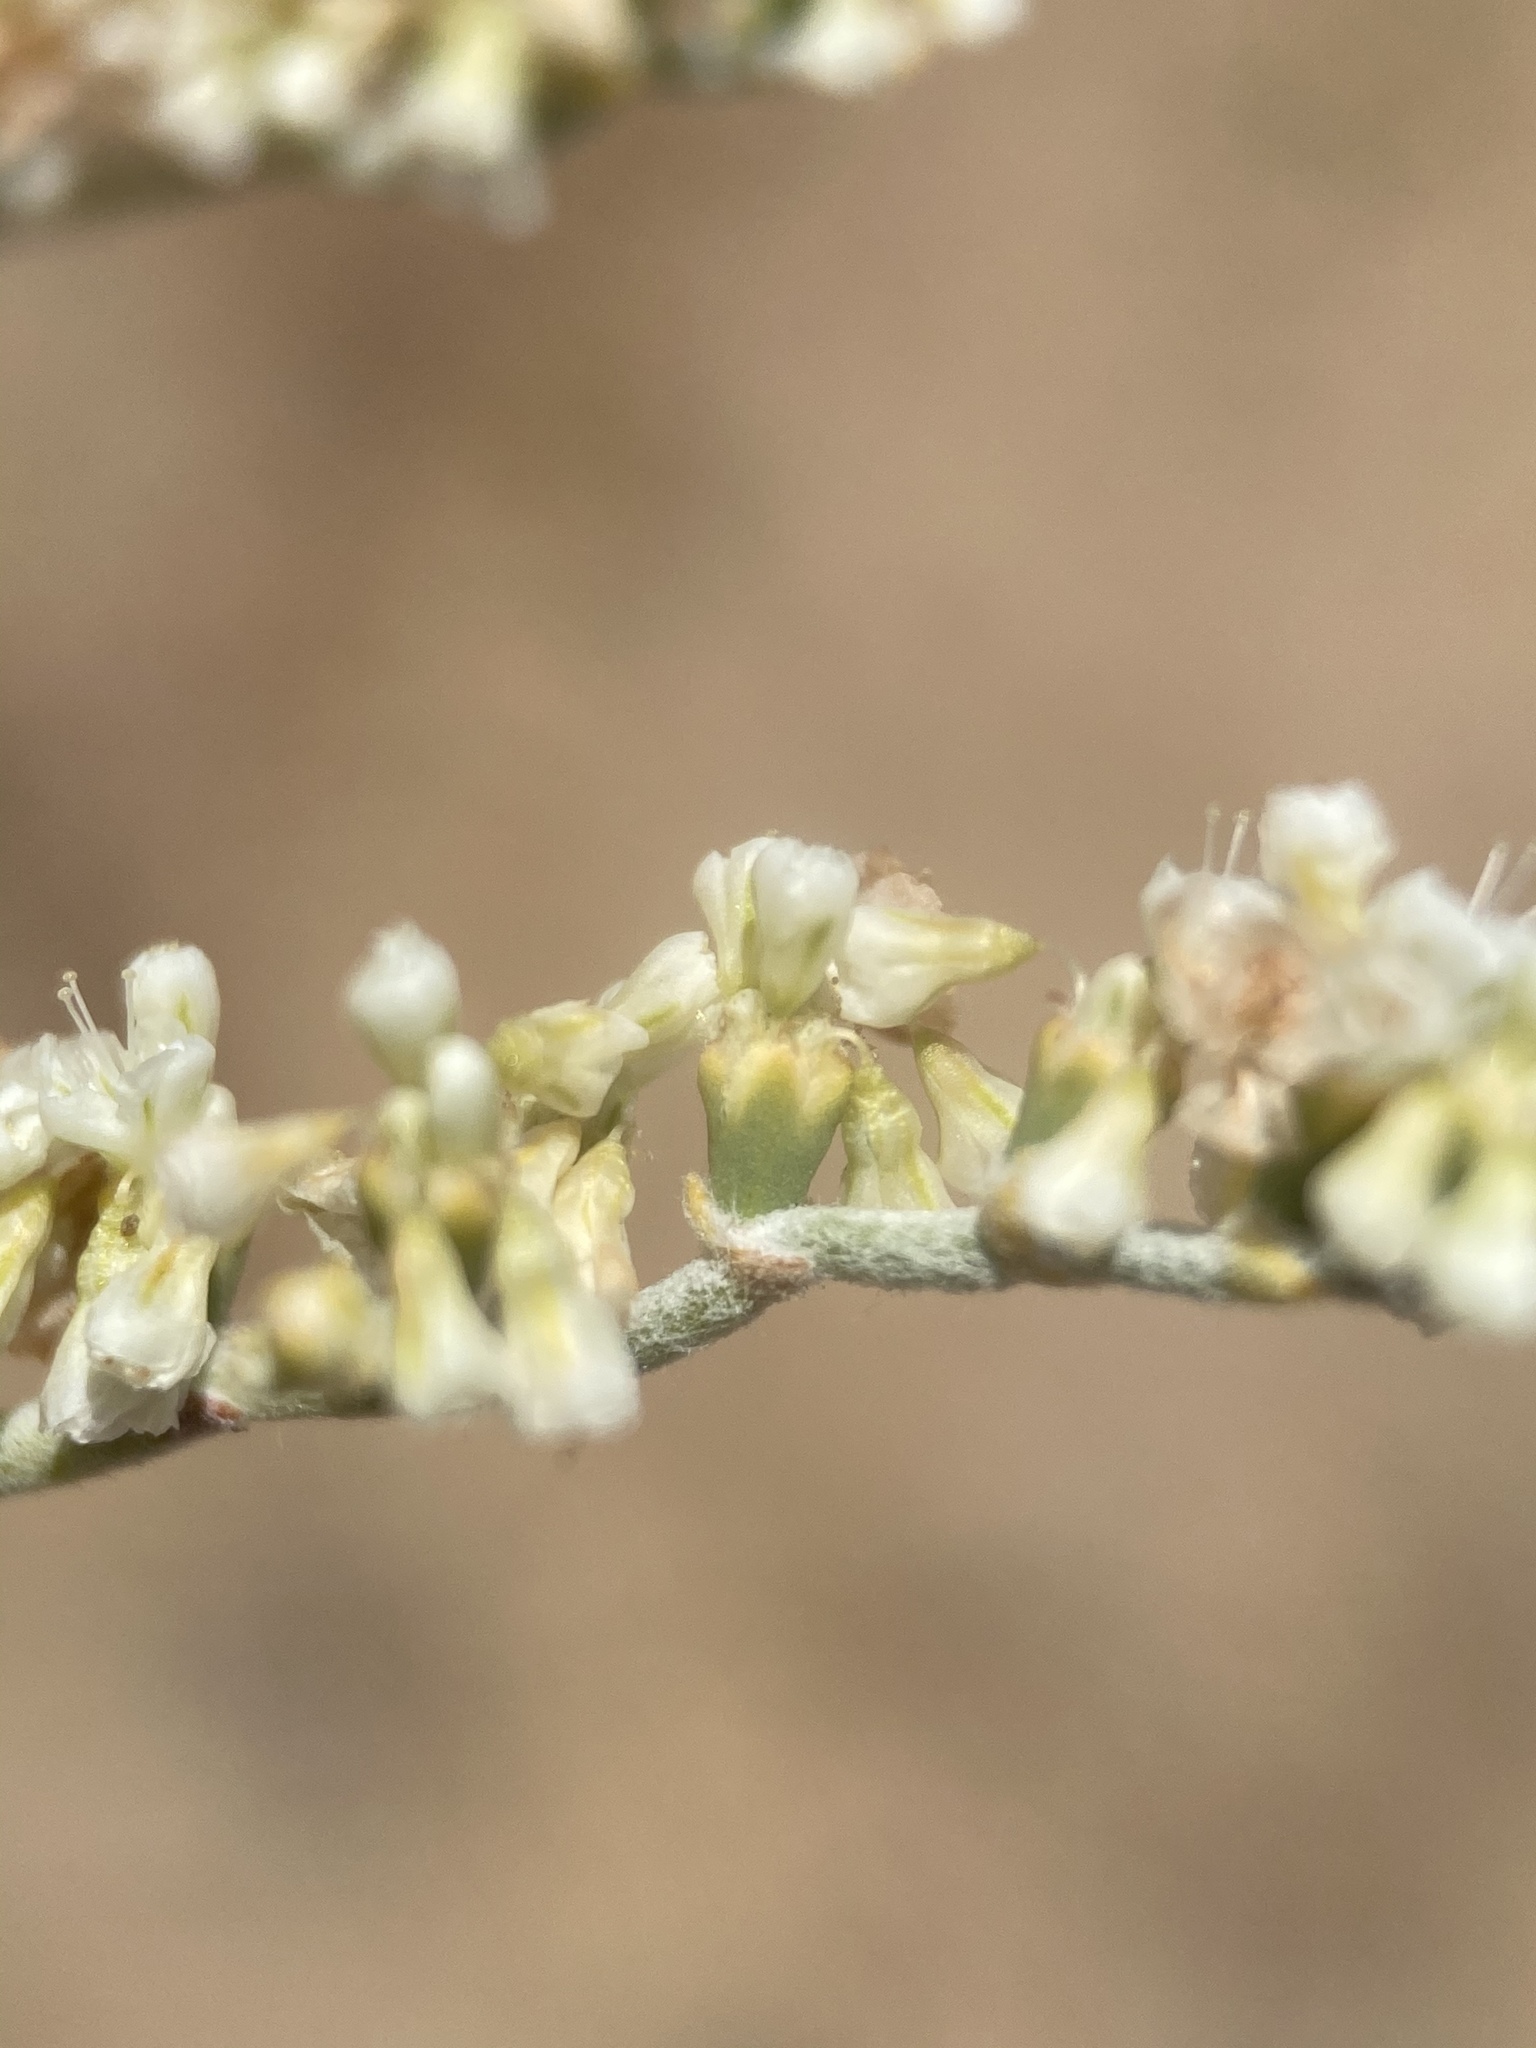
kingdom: Plantae
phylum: Tracheophyta
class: Magnoliopsida
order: Caryophyllales
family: Polygonaceae
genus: Eriogonum
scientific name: Eriogonum plumatella
